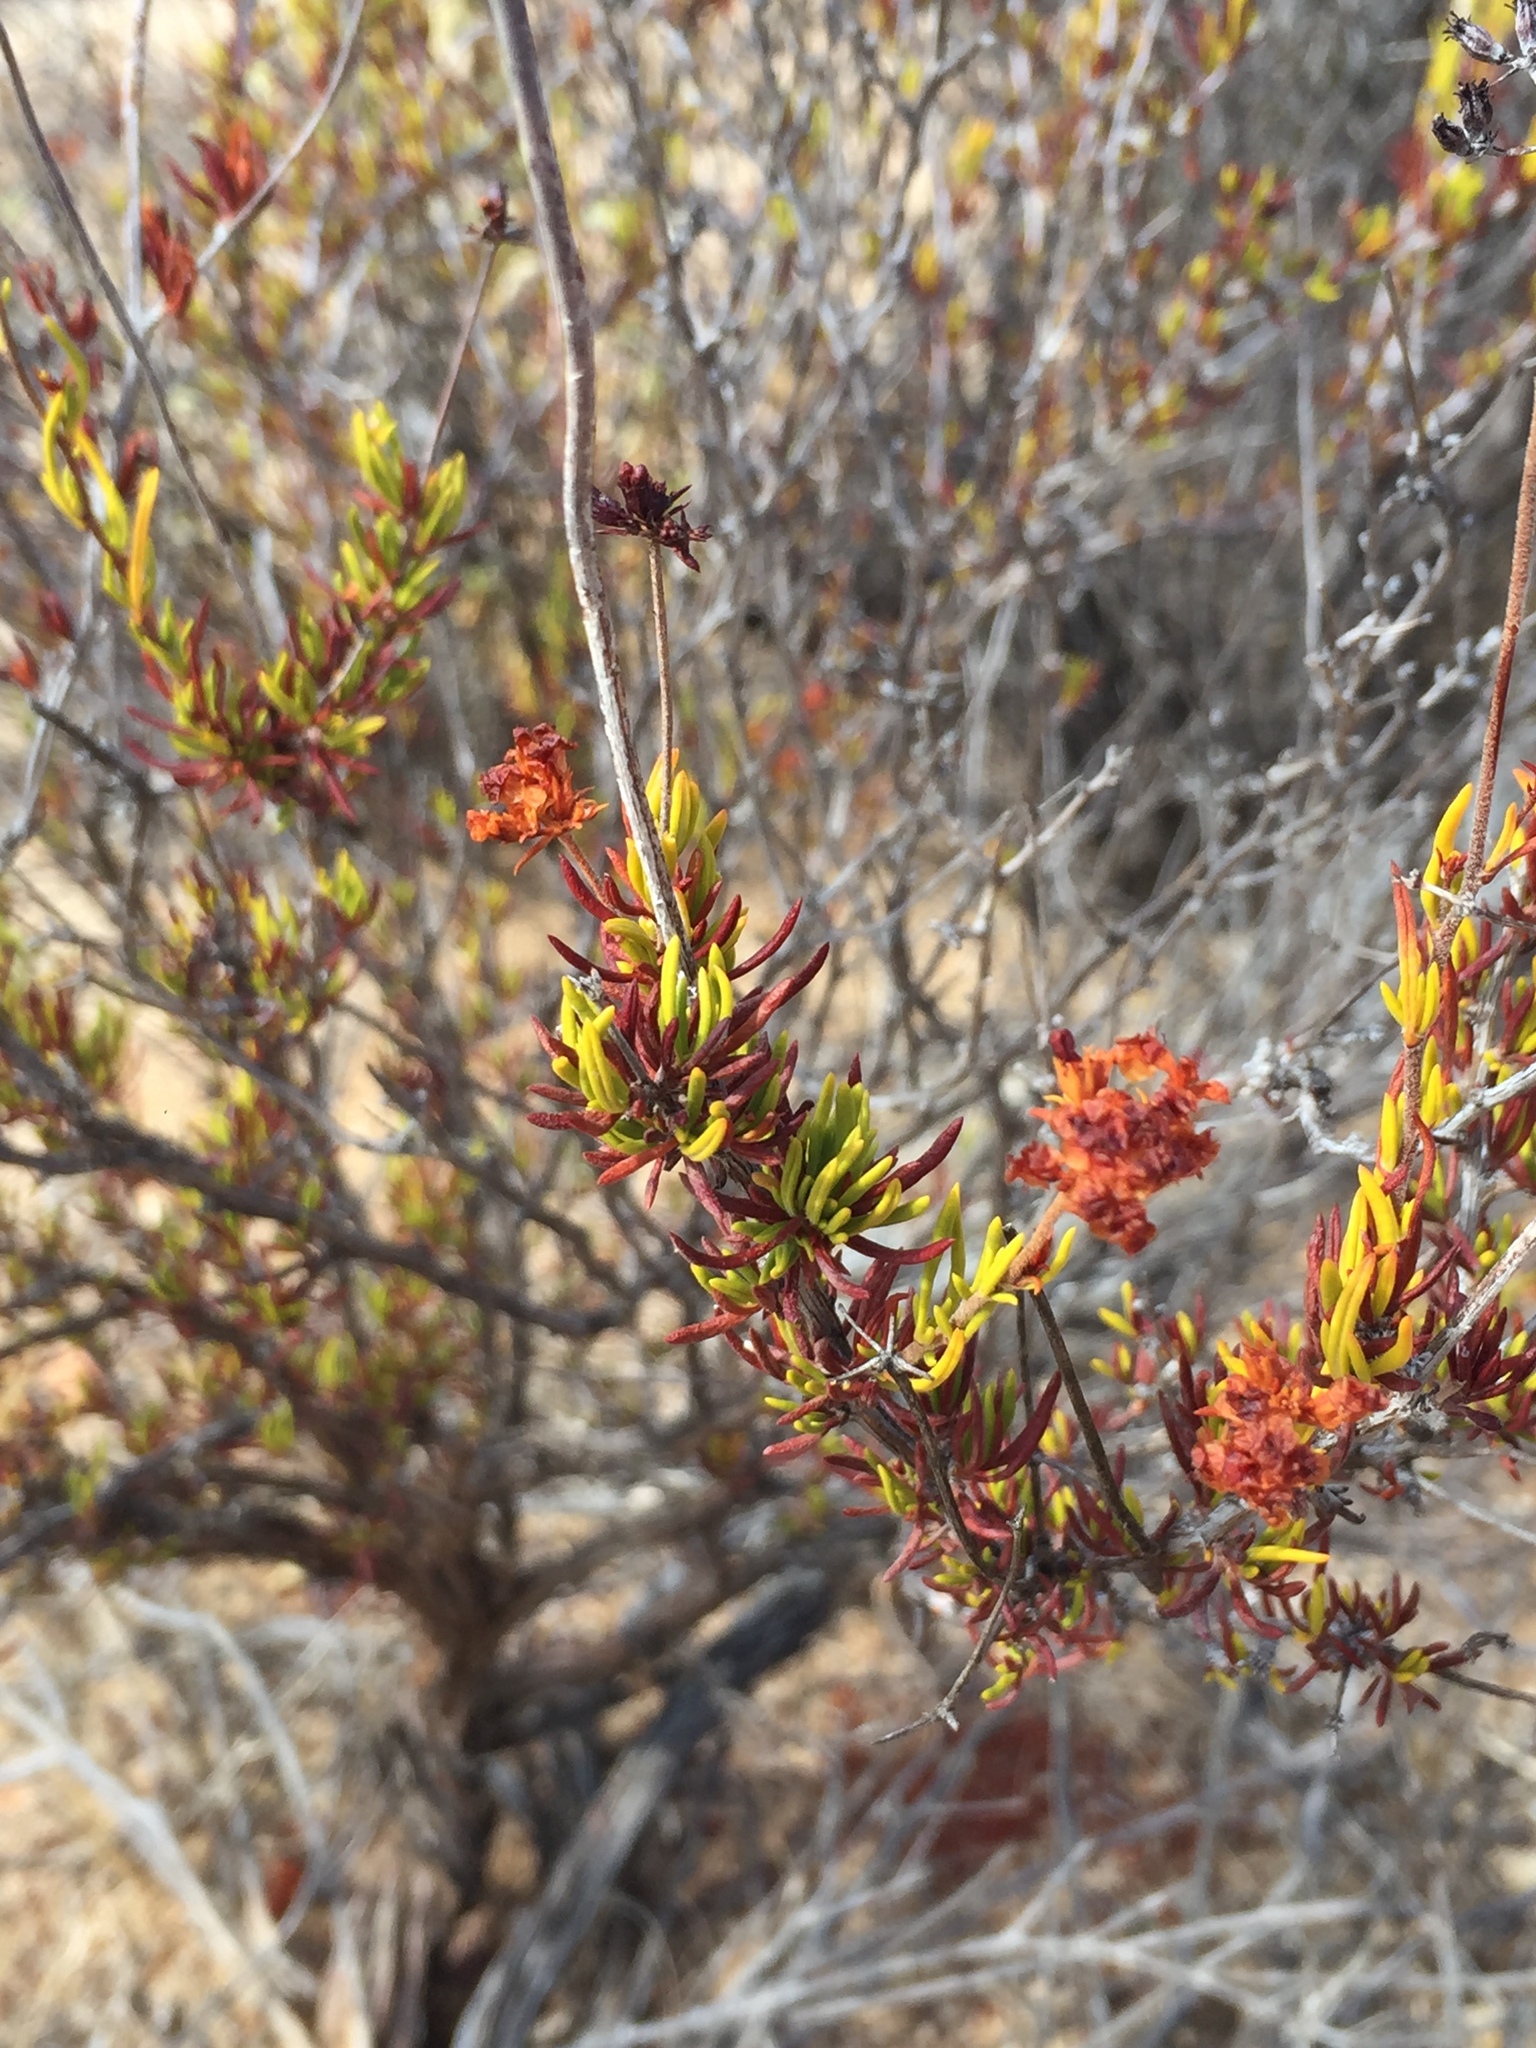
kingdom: Plantae
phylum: Tracheophyta
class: Magnoliopsida
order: Caryophyllales
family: Polygonaceae
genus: Eriogonum
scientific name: Eriogonum fasciculatum
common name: California wild buckwheat
